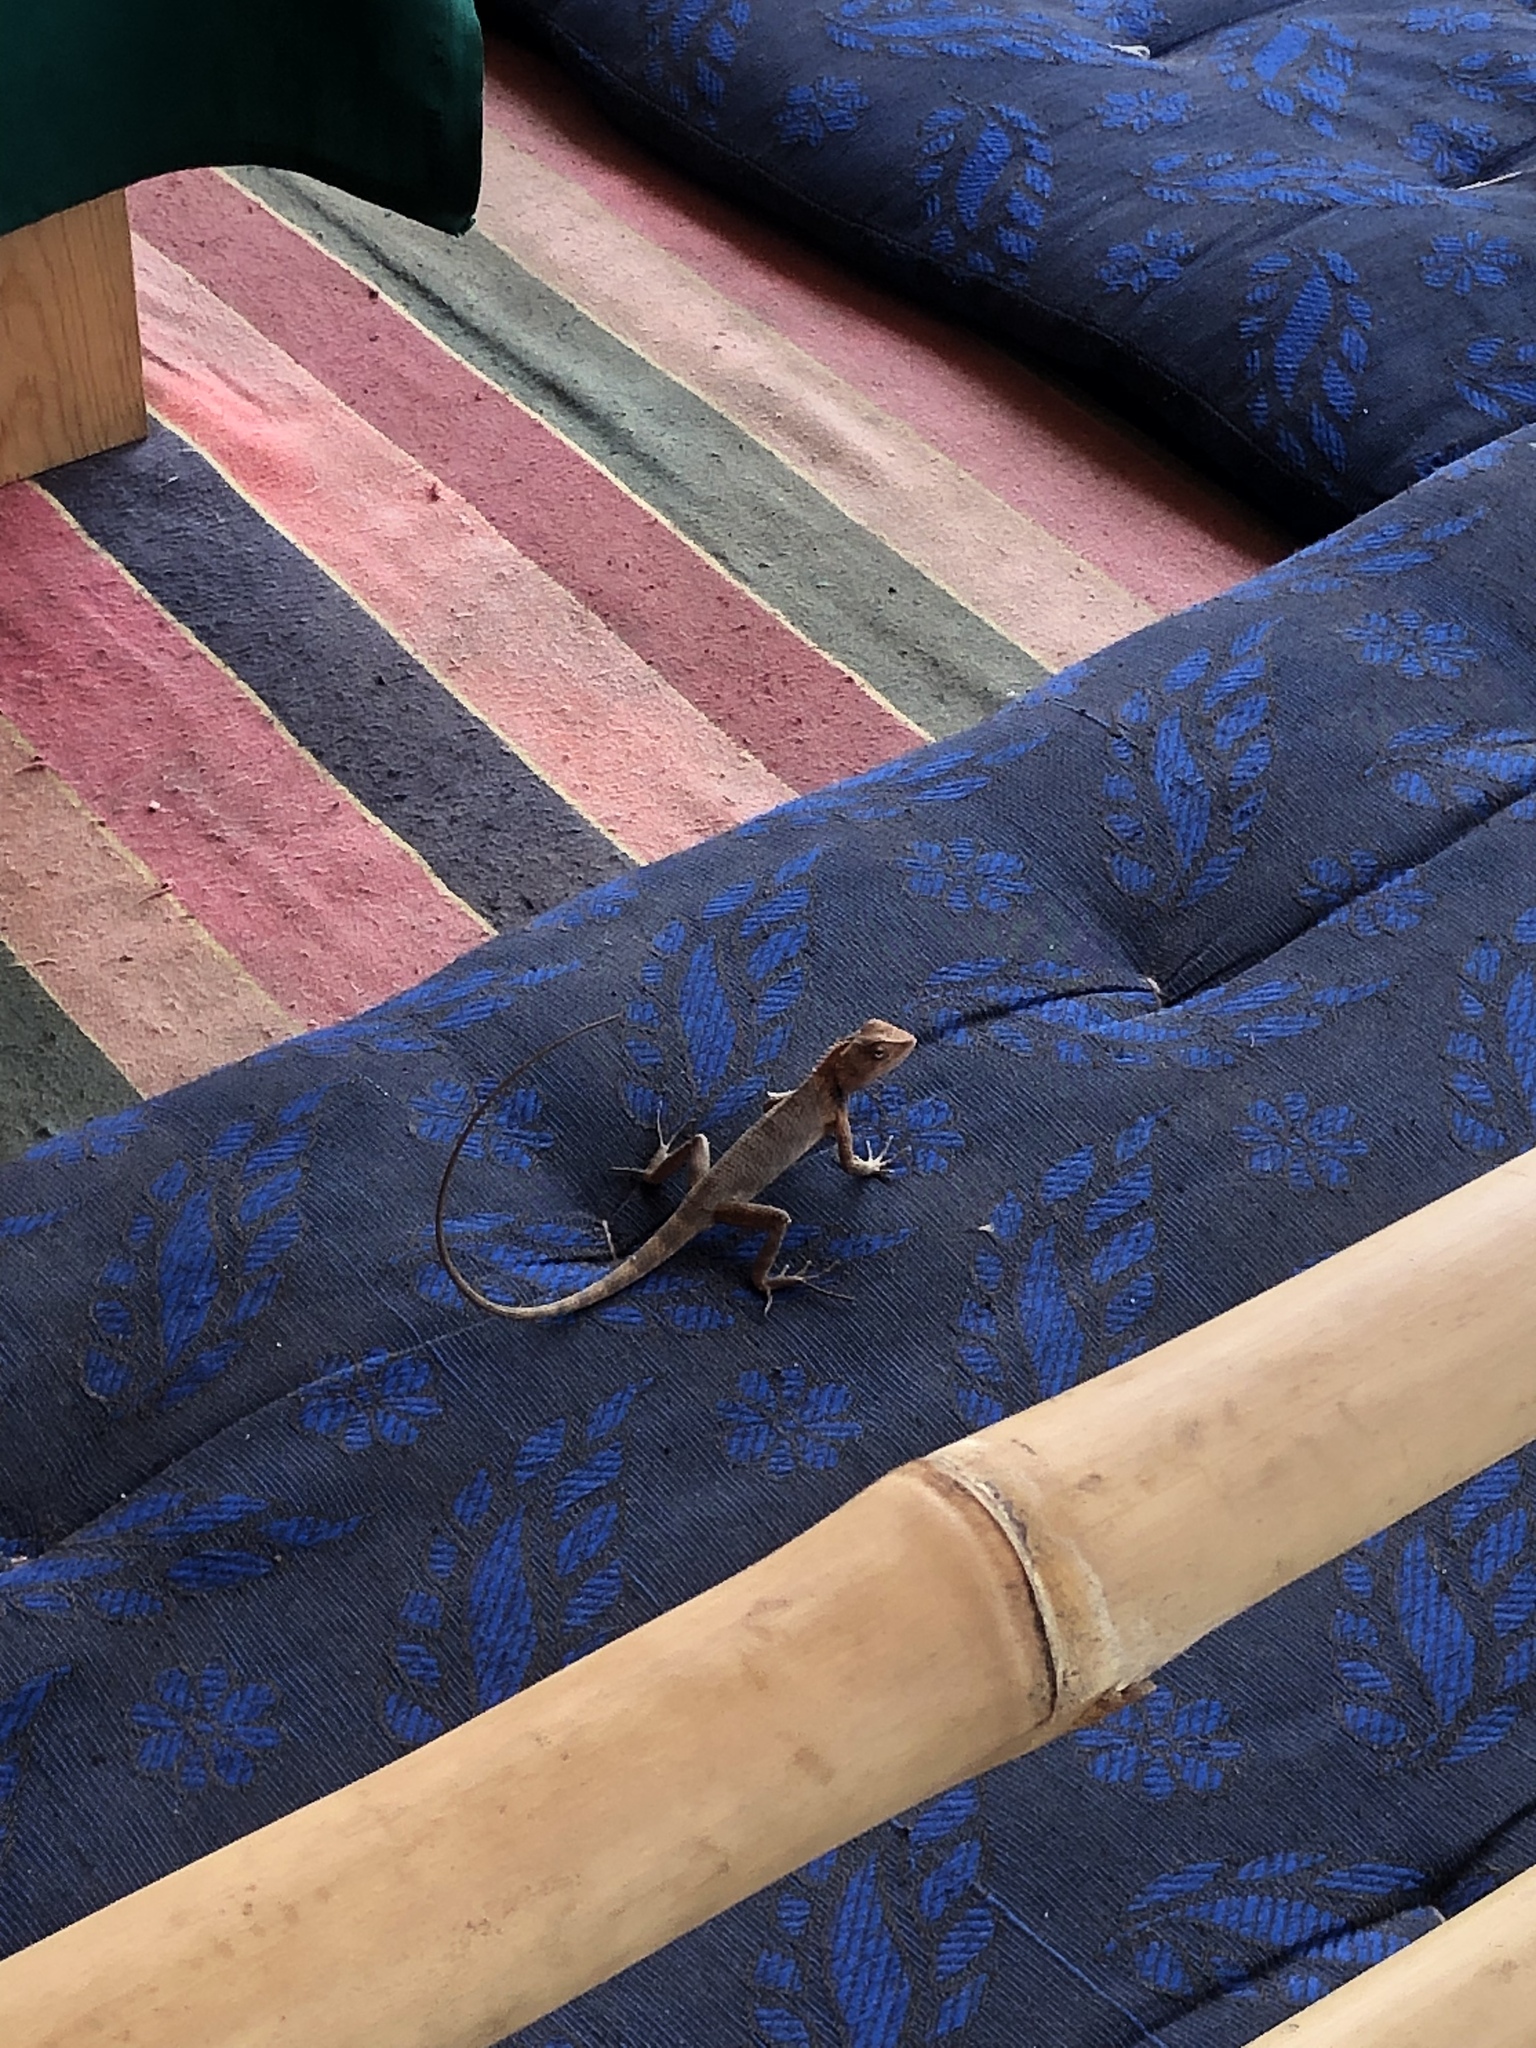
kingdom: Animalia
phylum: Chordata
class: Squamata
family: Agamidae
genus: Calotes
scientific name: Calotes versicolor
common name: Oriental garden lizard
